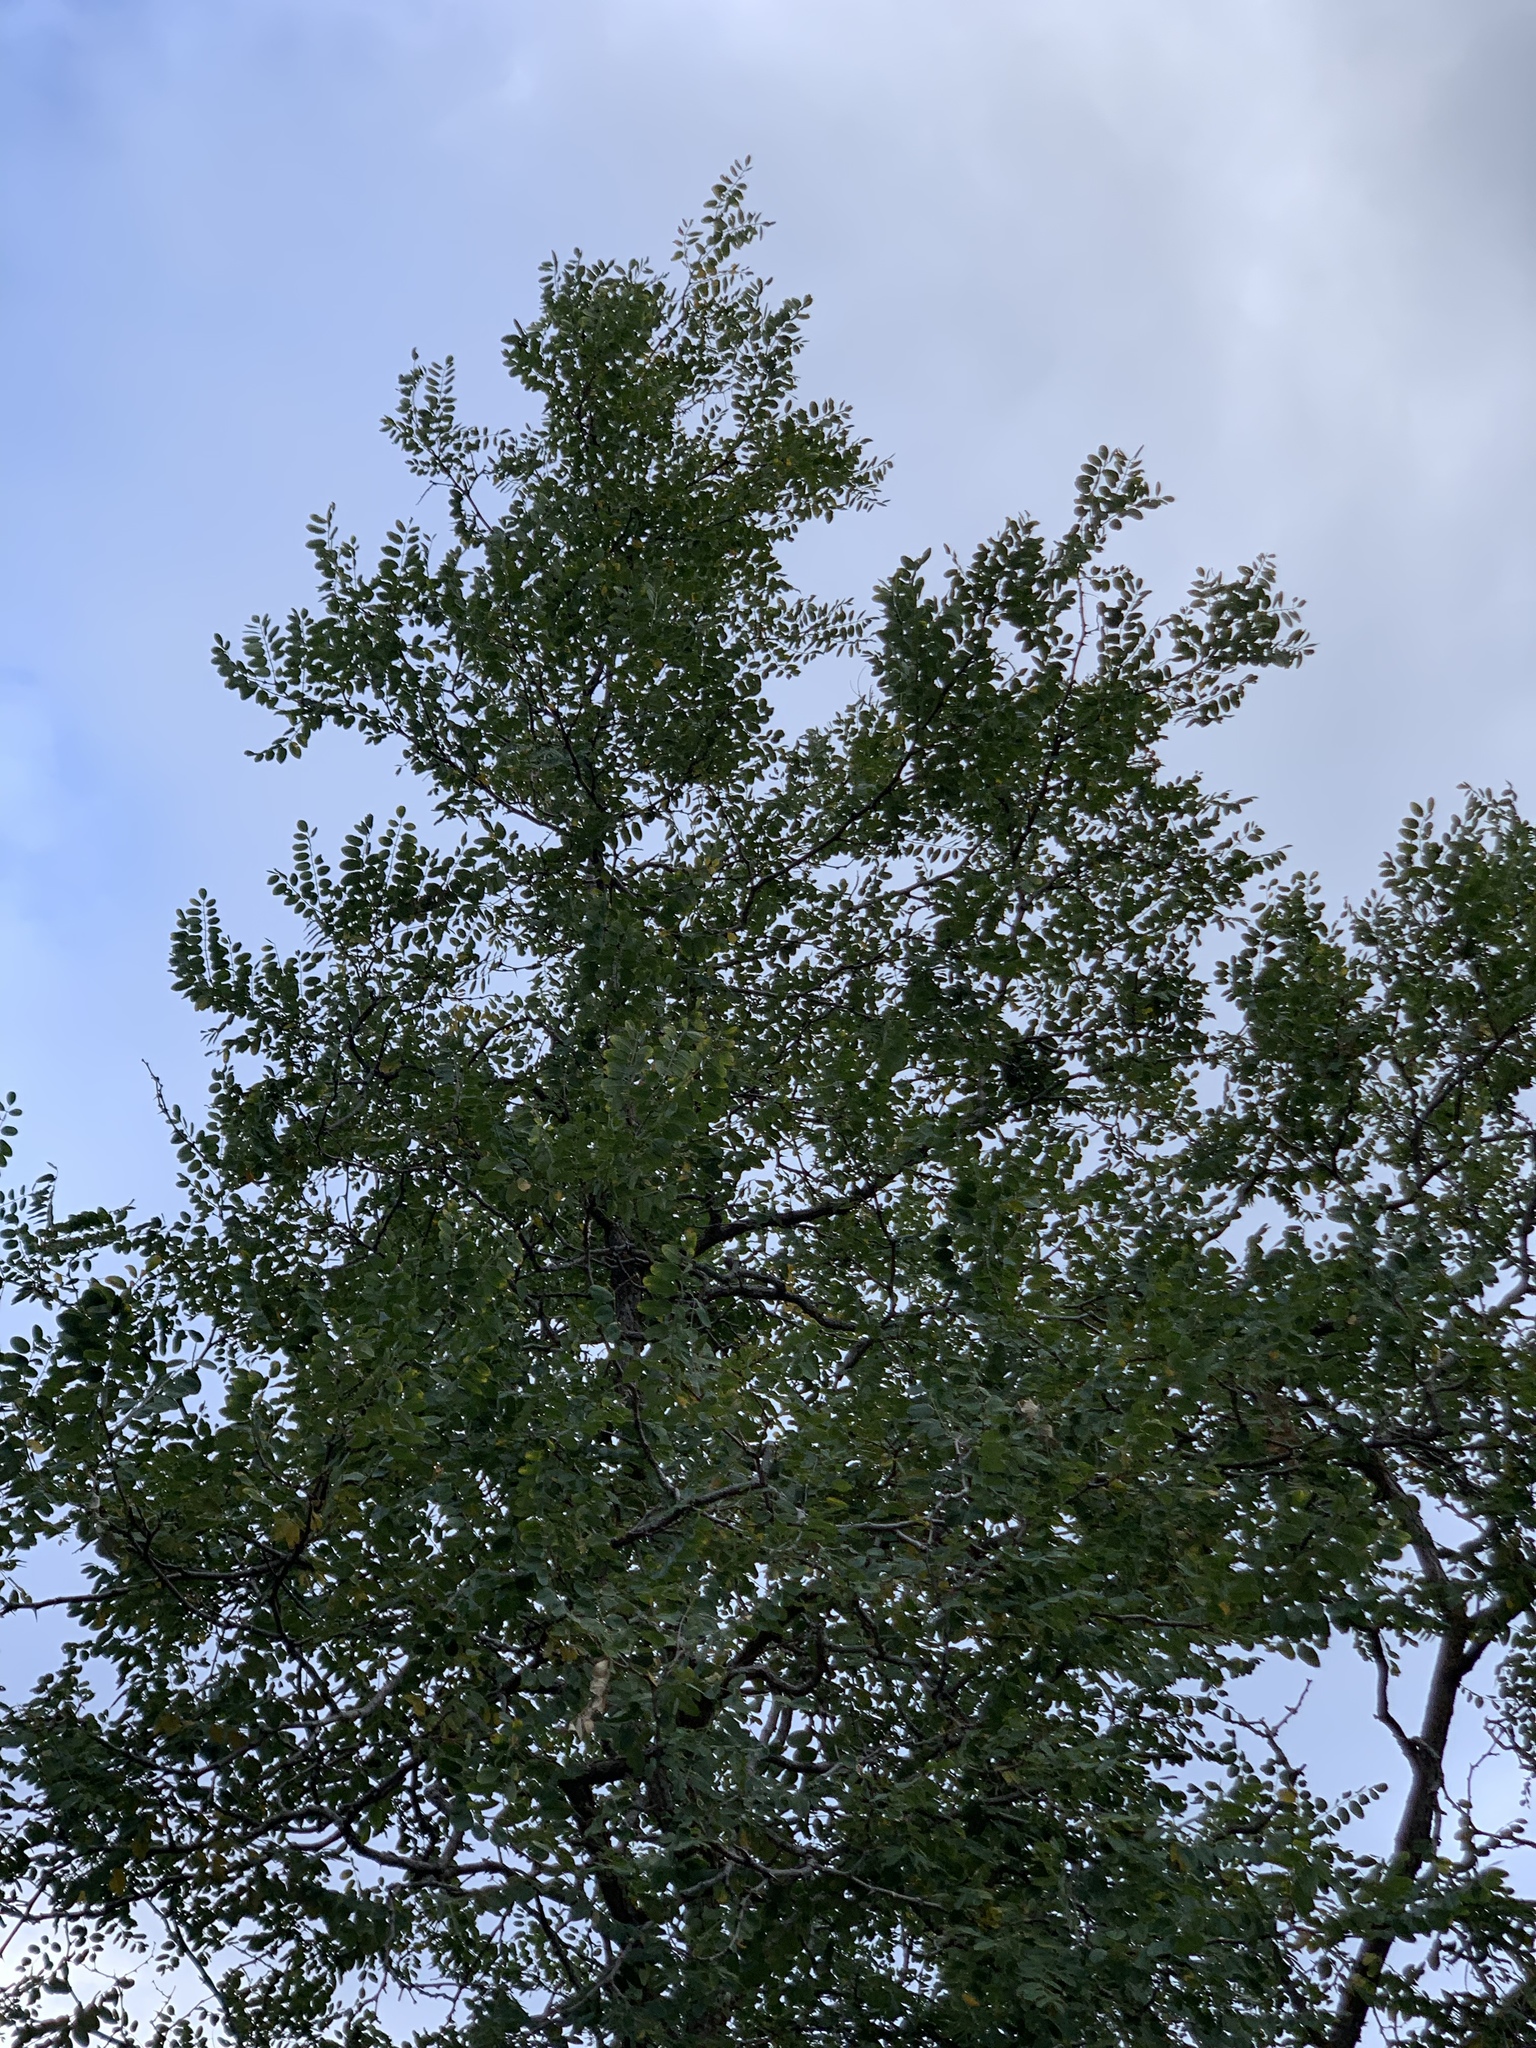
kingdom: Plantae
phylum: Tracheophyta
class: Magnoliopsida
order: Fabales
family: Fabaceae
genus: Robinia
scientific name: Robinia neomexicana
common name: New mexico locust
